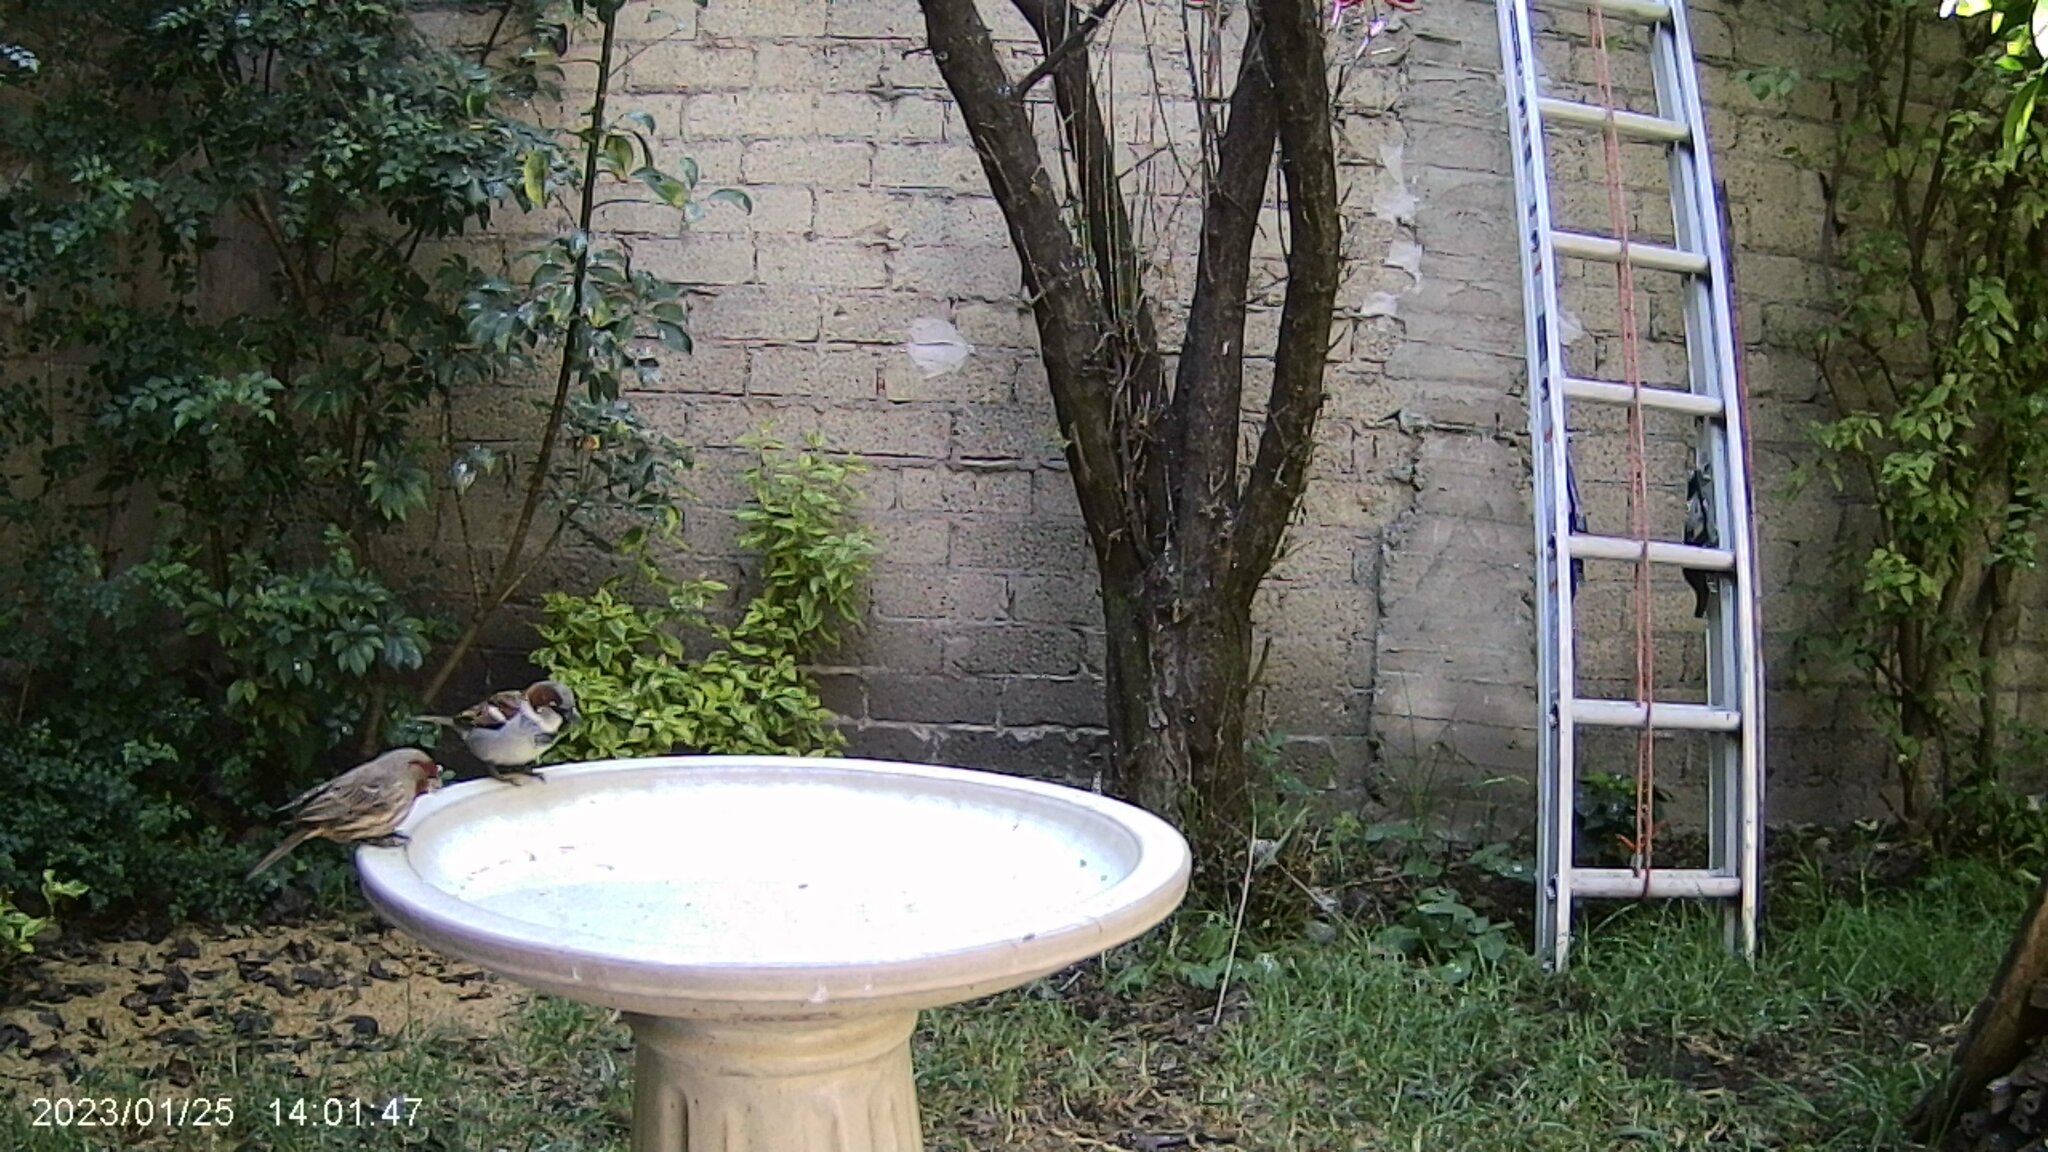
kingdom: Animalia
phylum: Chordata
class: Aves
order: Passeriformes
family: Fringillidae
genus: Haemorhous
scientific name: Haemorhous mexicanus
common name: House finch
